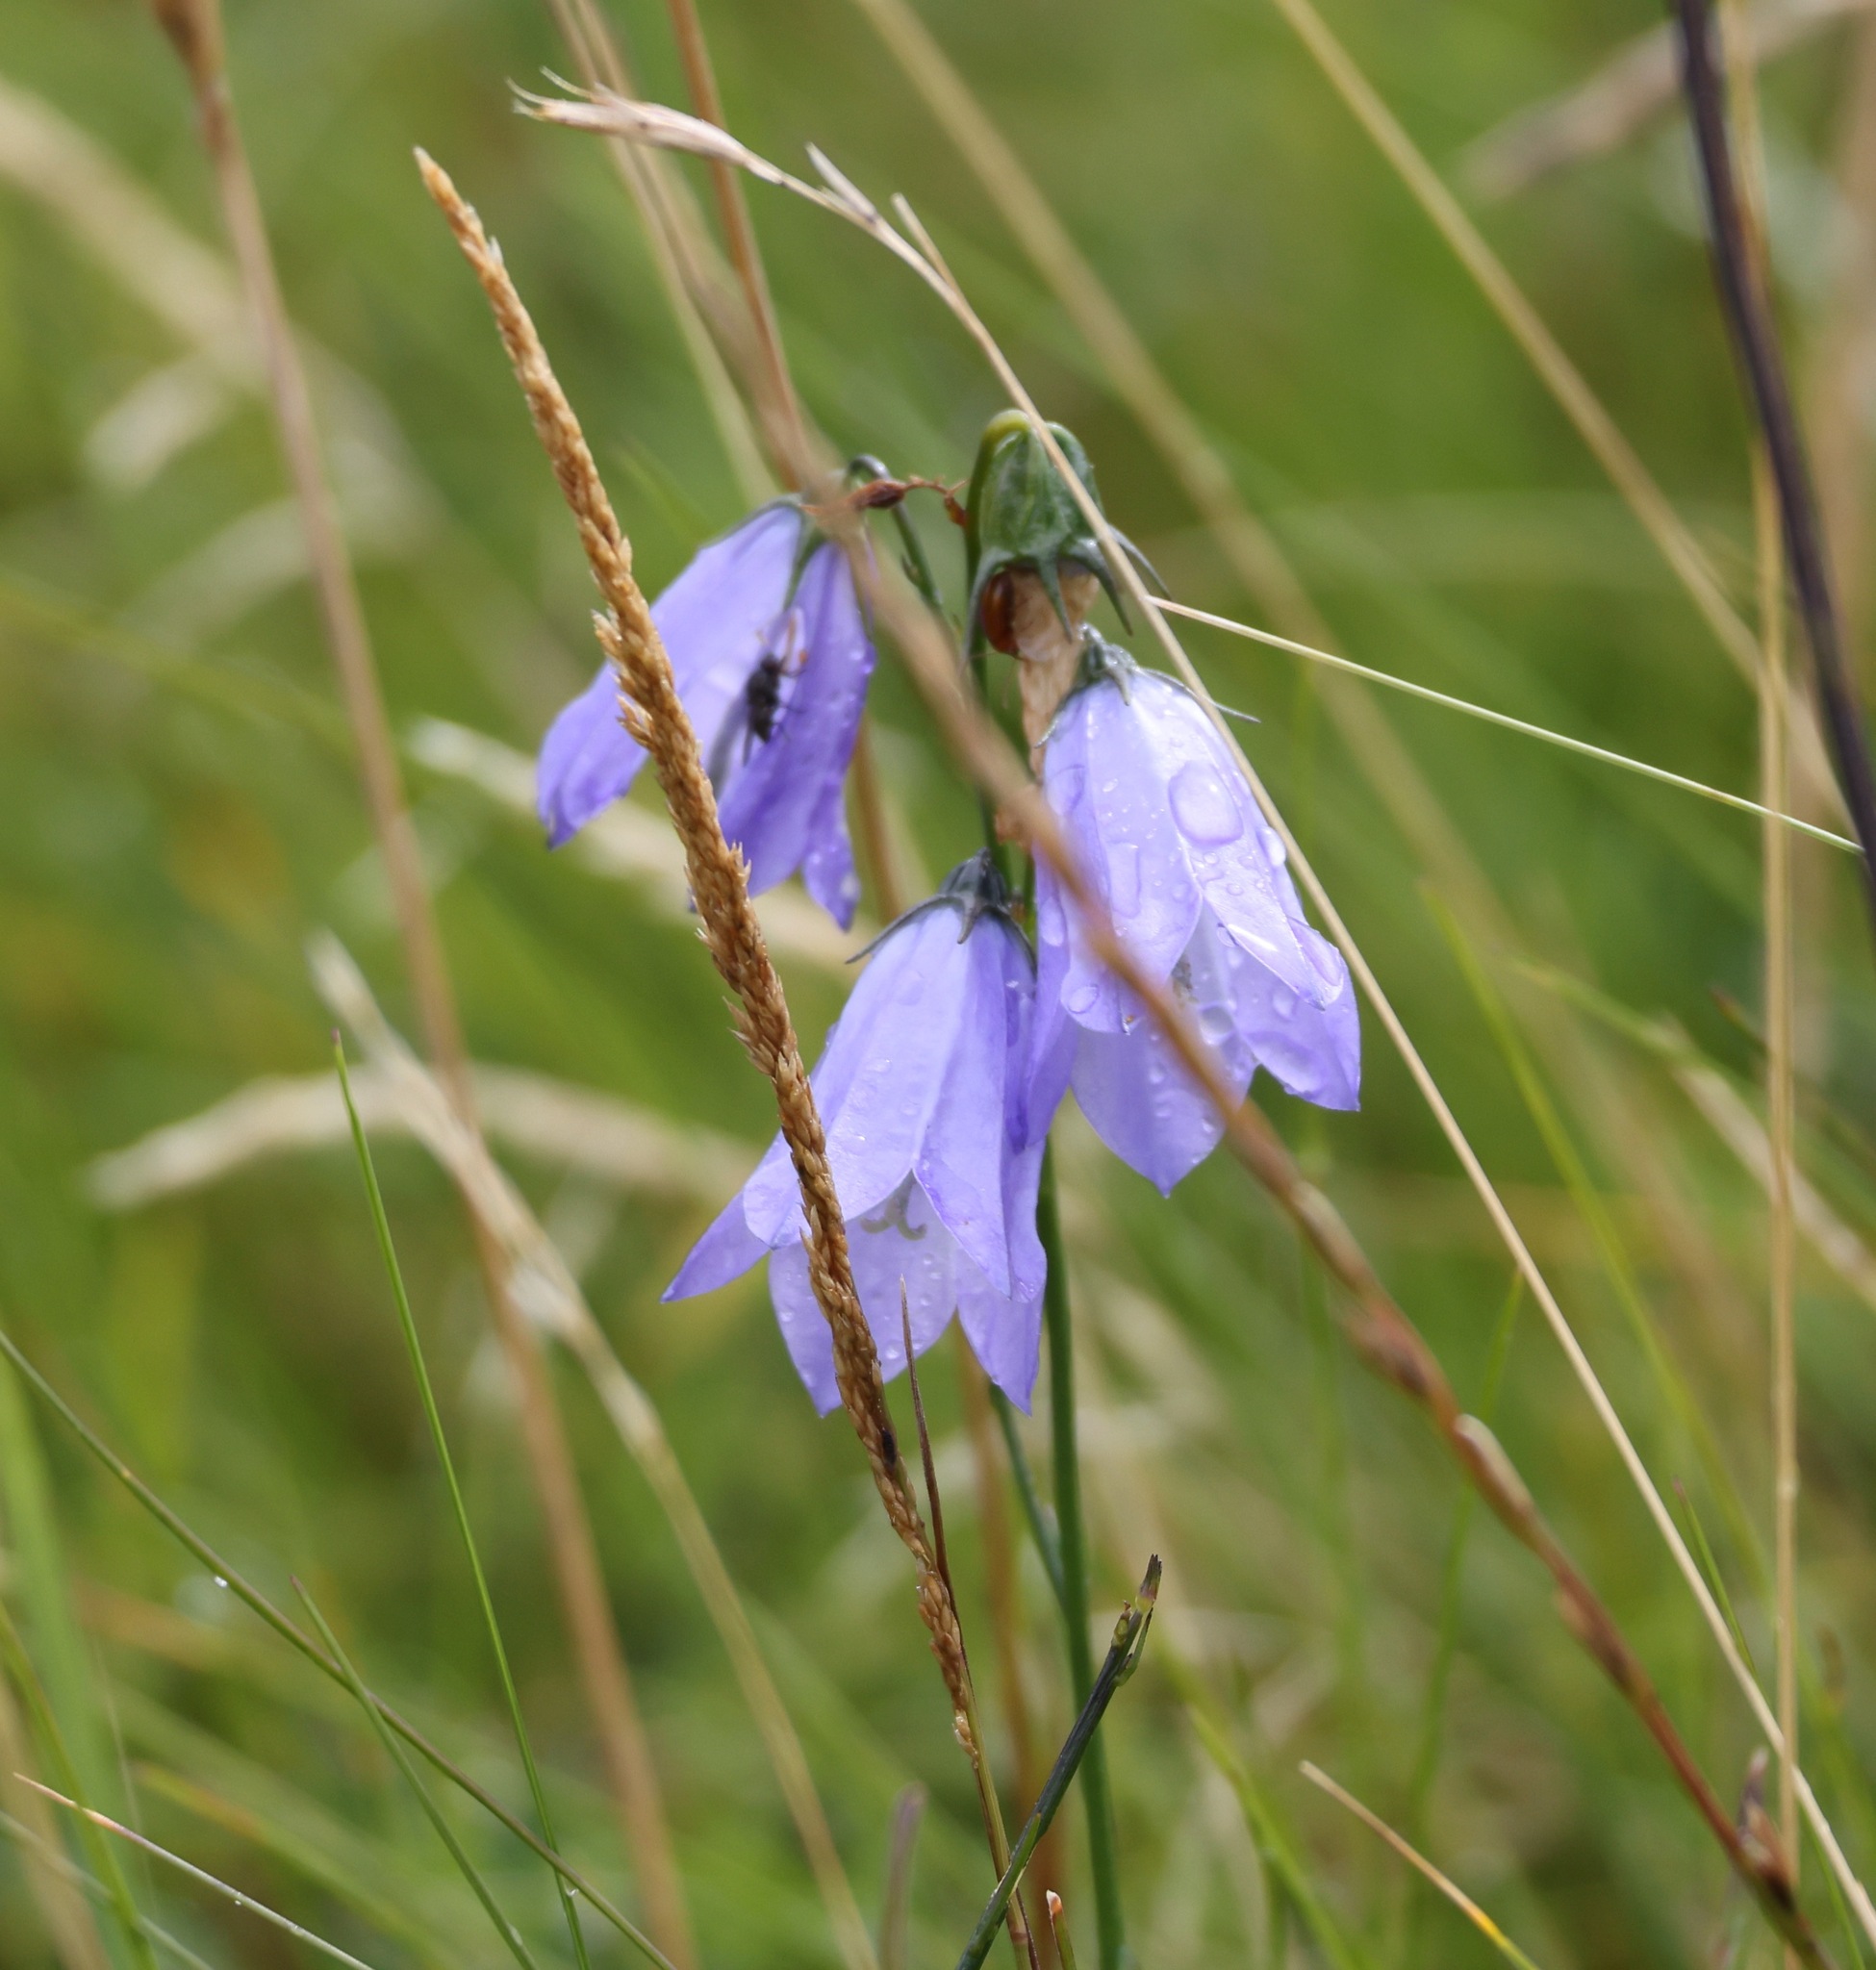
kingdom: Plantae
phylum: Tracheophyta
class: Magnoliopsida
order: Asterales
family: Campanulaceae
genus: Campanula
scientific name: Campanula rotundifolia
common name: Harebell
